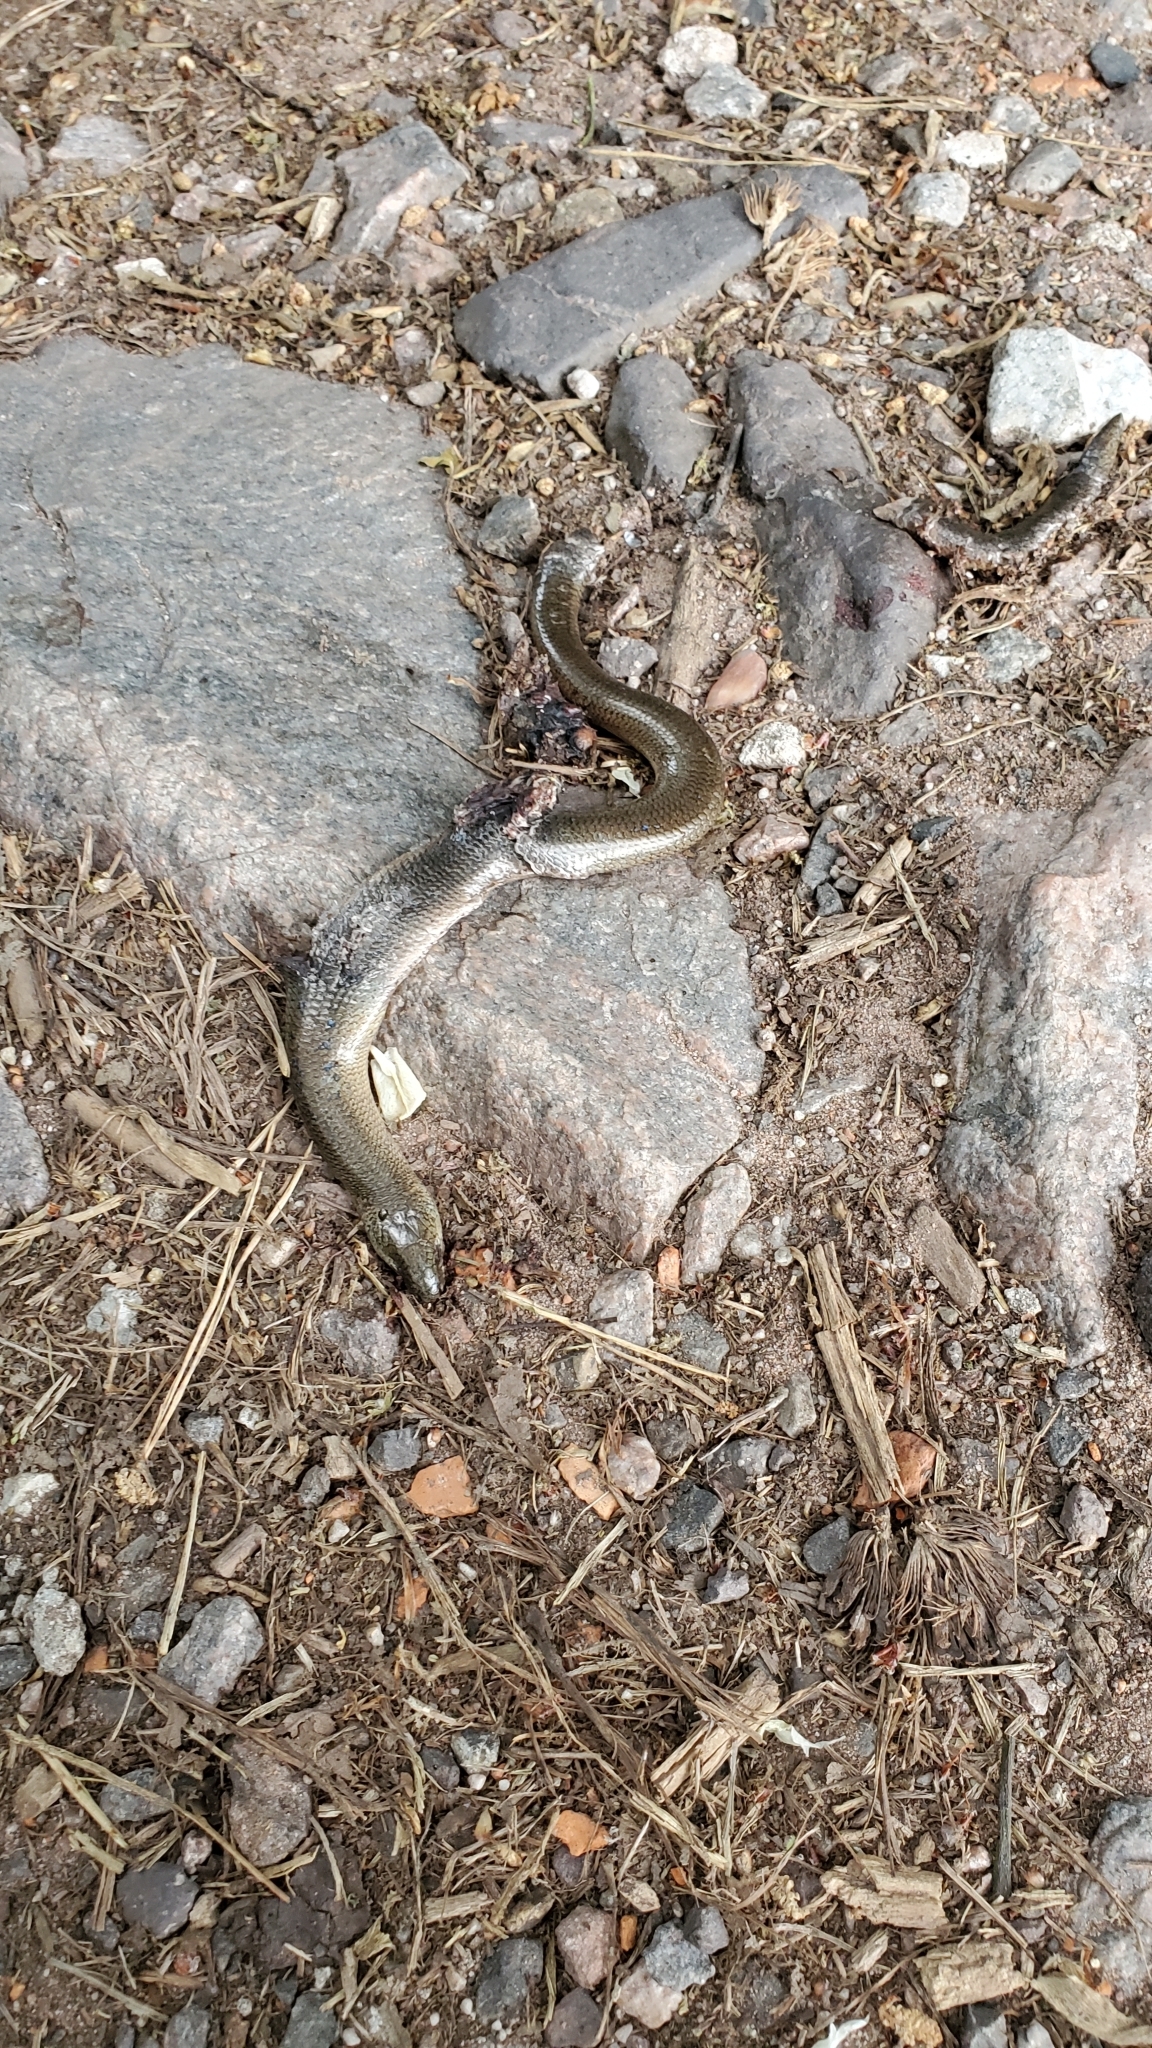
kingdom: Animalia
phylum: Chordata
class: Squamata
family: Anguidae
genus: Anguis
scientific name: Anguis fragilis
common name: Slow worm
